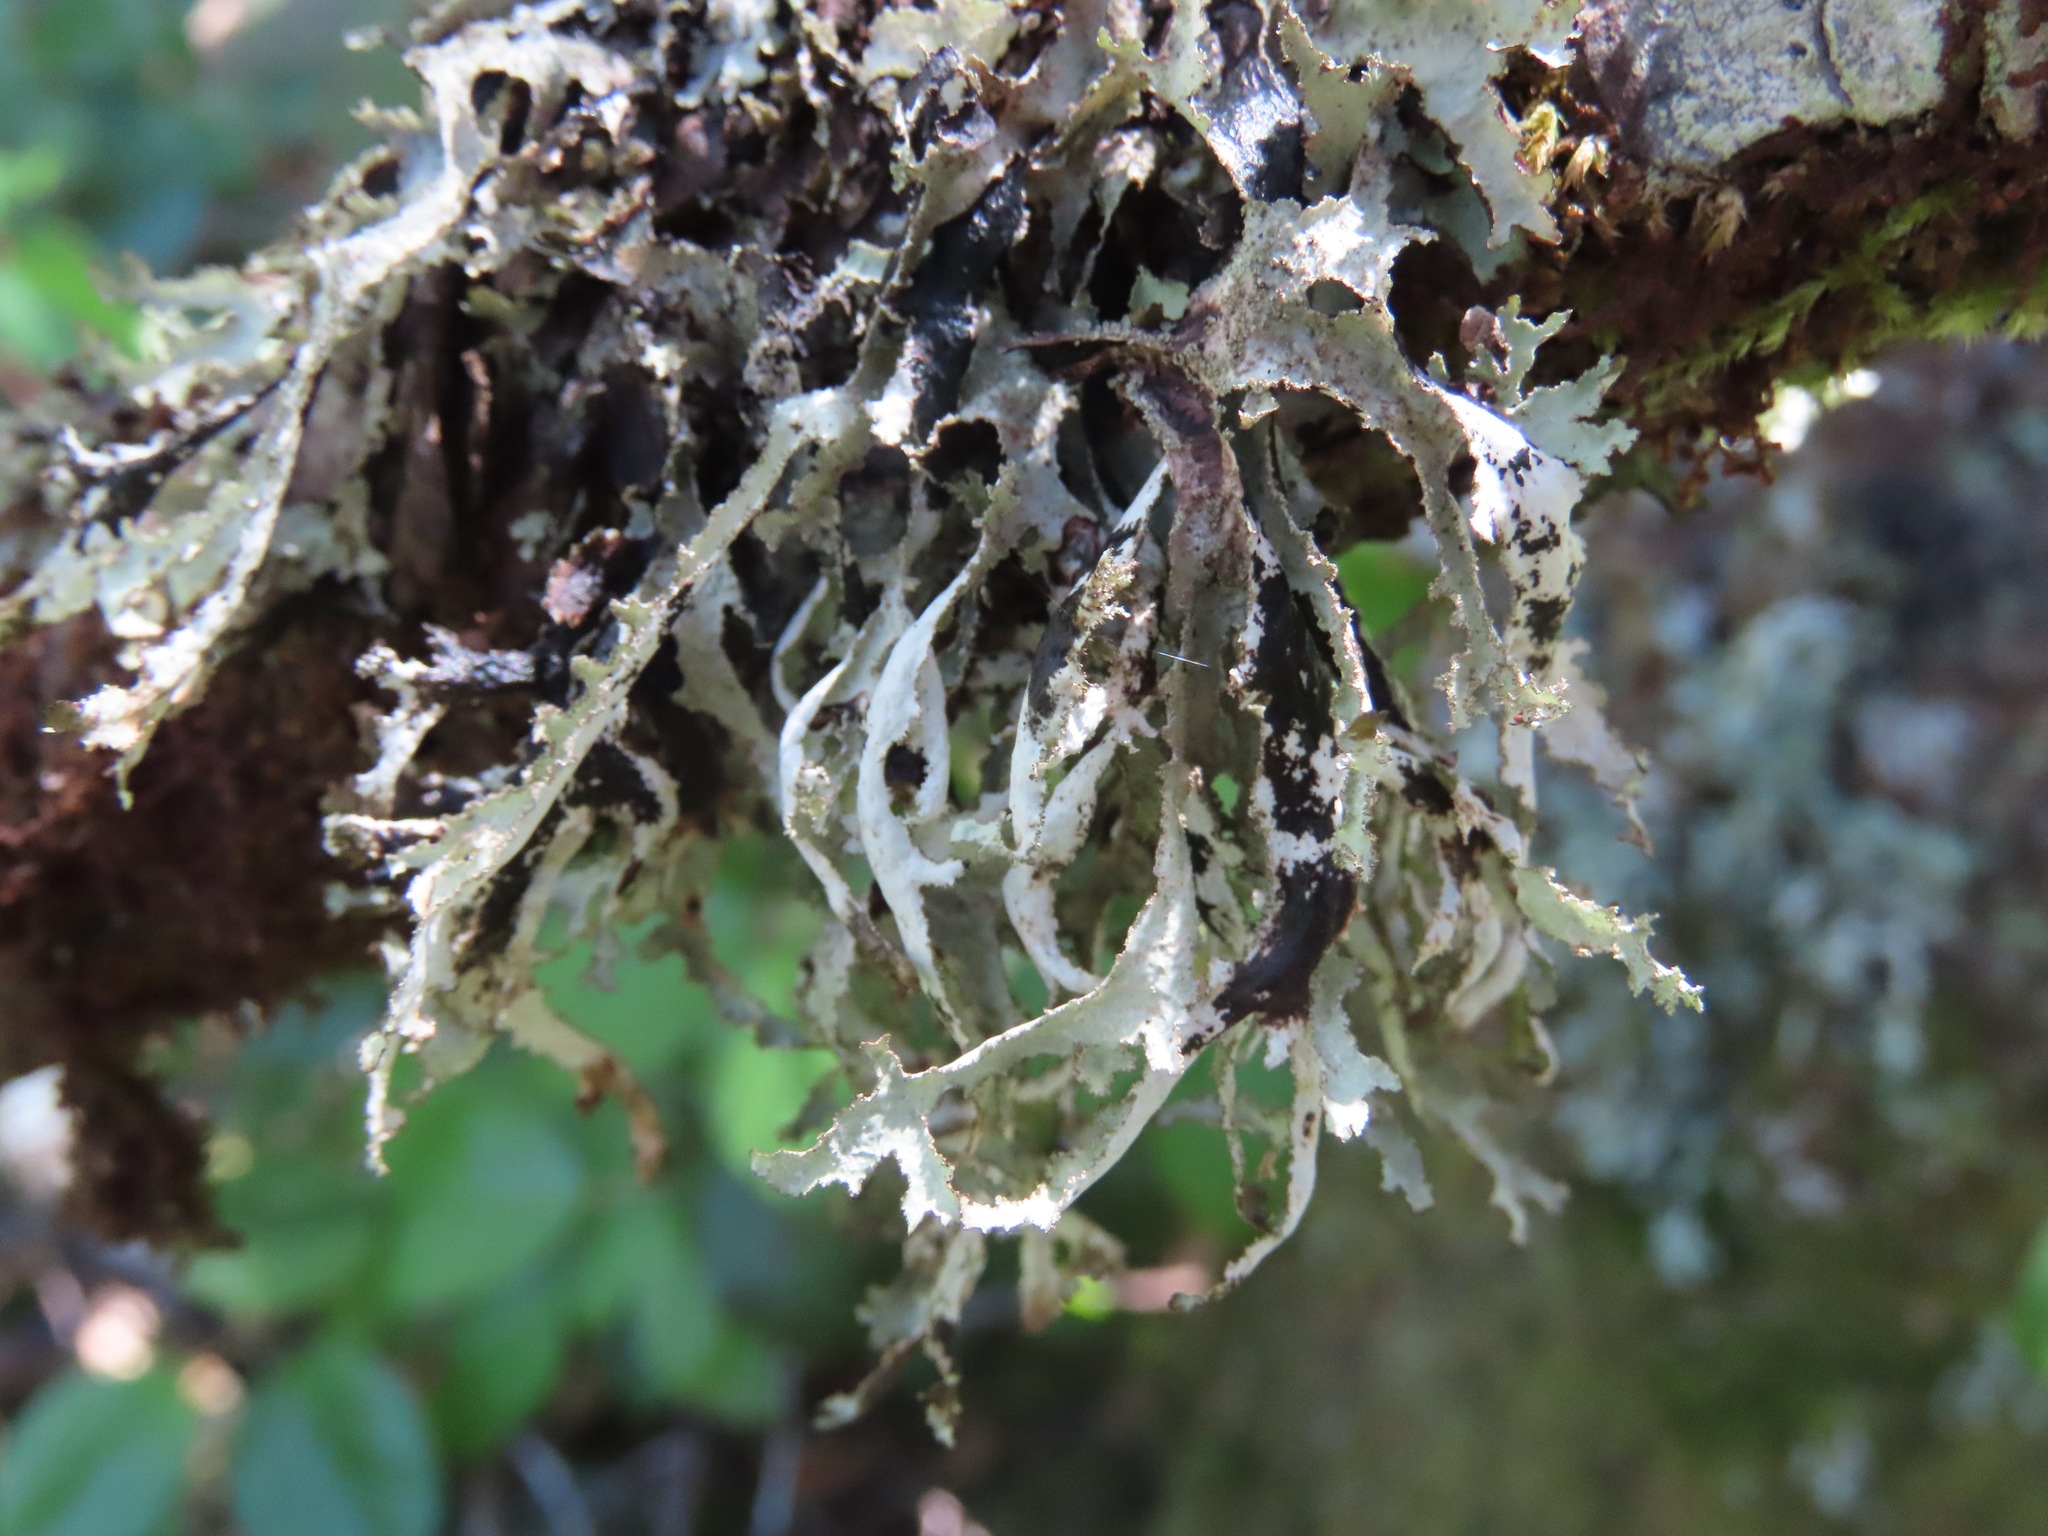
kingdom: Fungi
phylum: Ascomycota
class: Lecanoromycetes
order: Lecanorales
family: Parmeliaceae
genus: Platismatia
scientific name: Platismatia herrei
